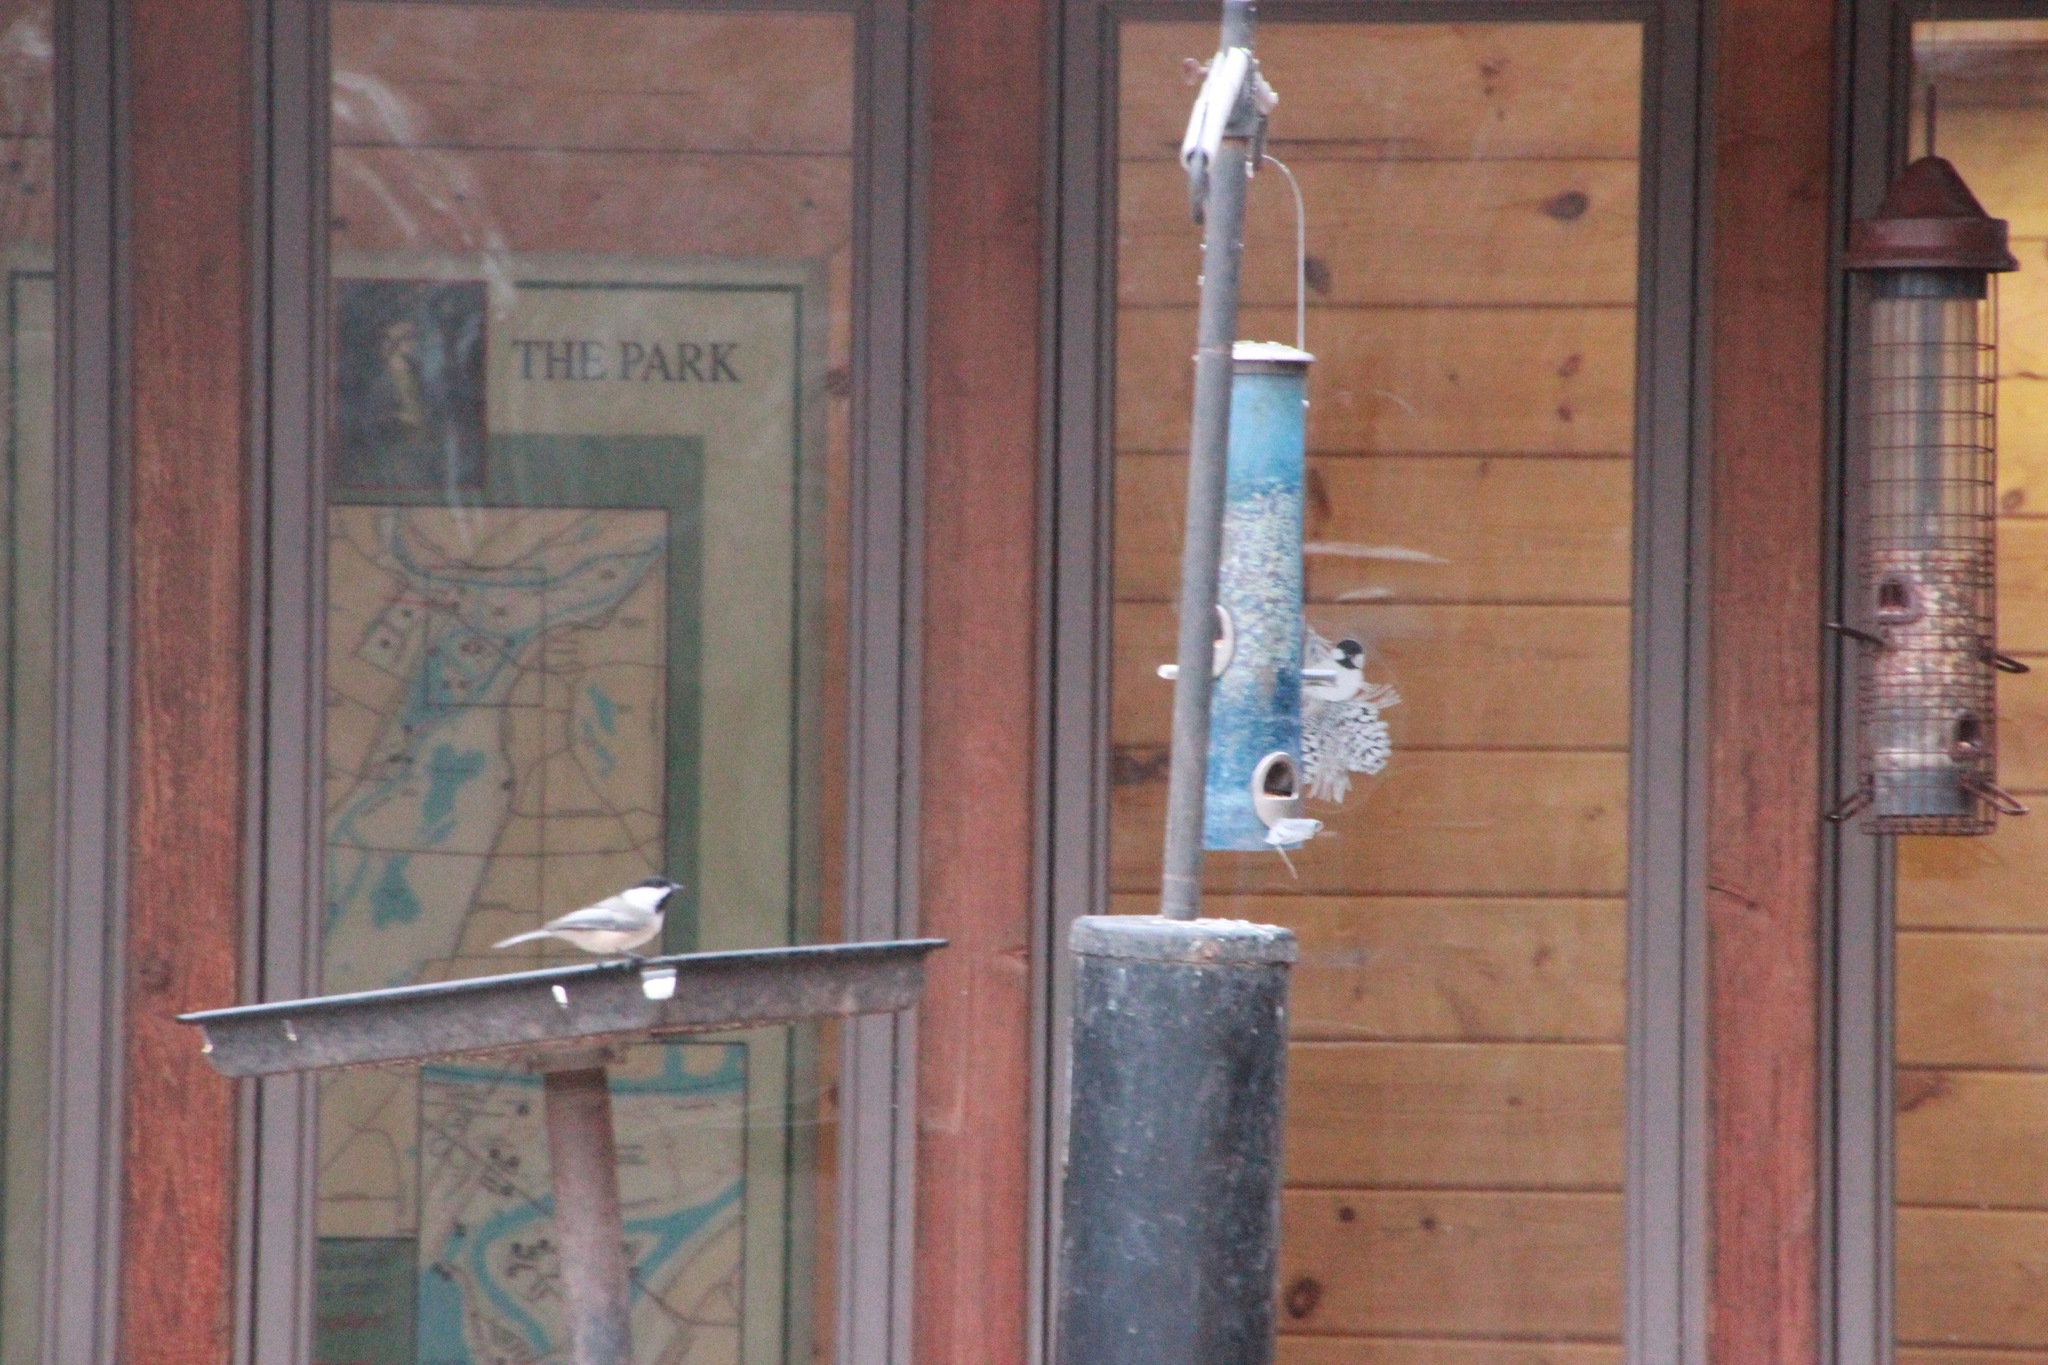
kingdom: Animalia
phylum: Chordata
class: Aves
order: Passeriformes
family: Paridae
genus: Poecile
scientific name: Poecile atricapillus
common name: Black-capped chickadee
